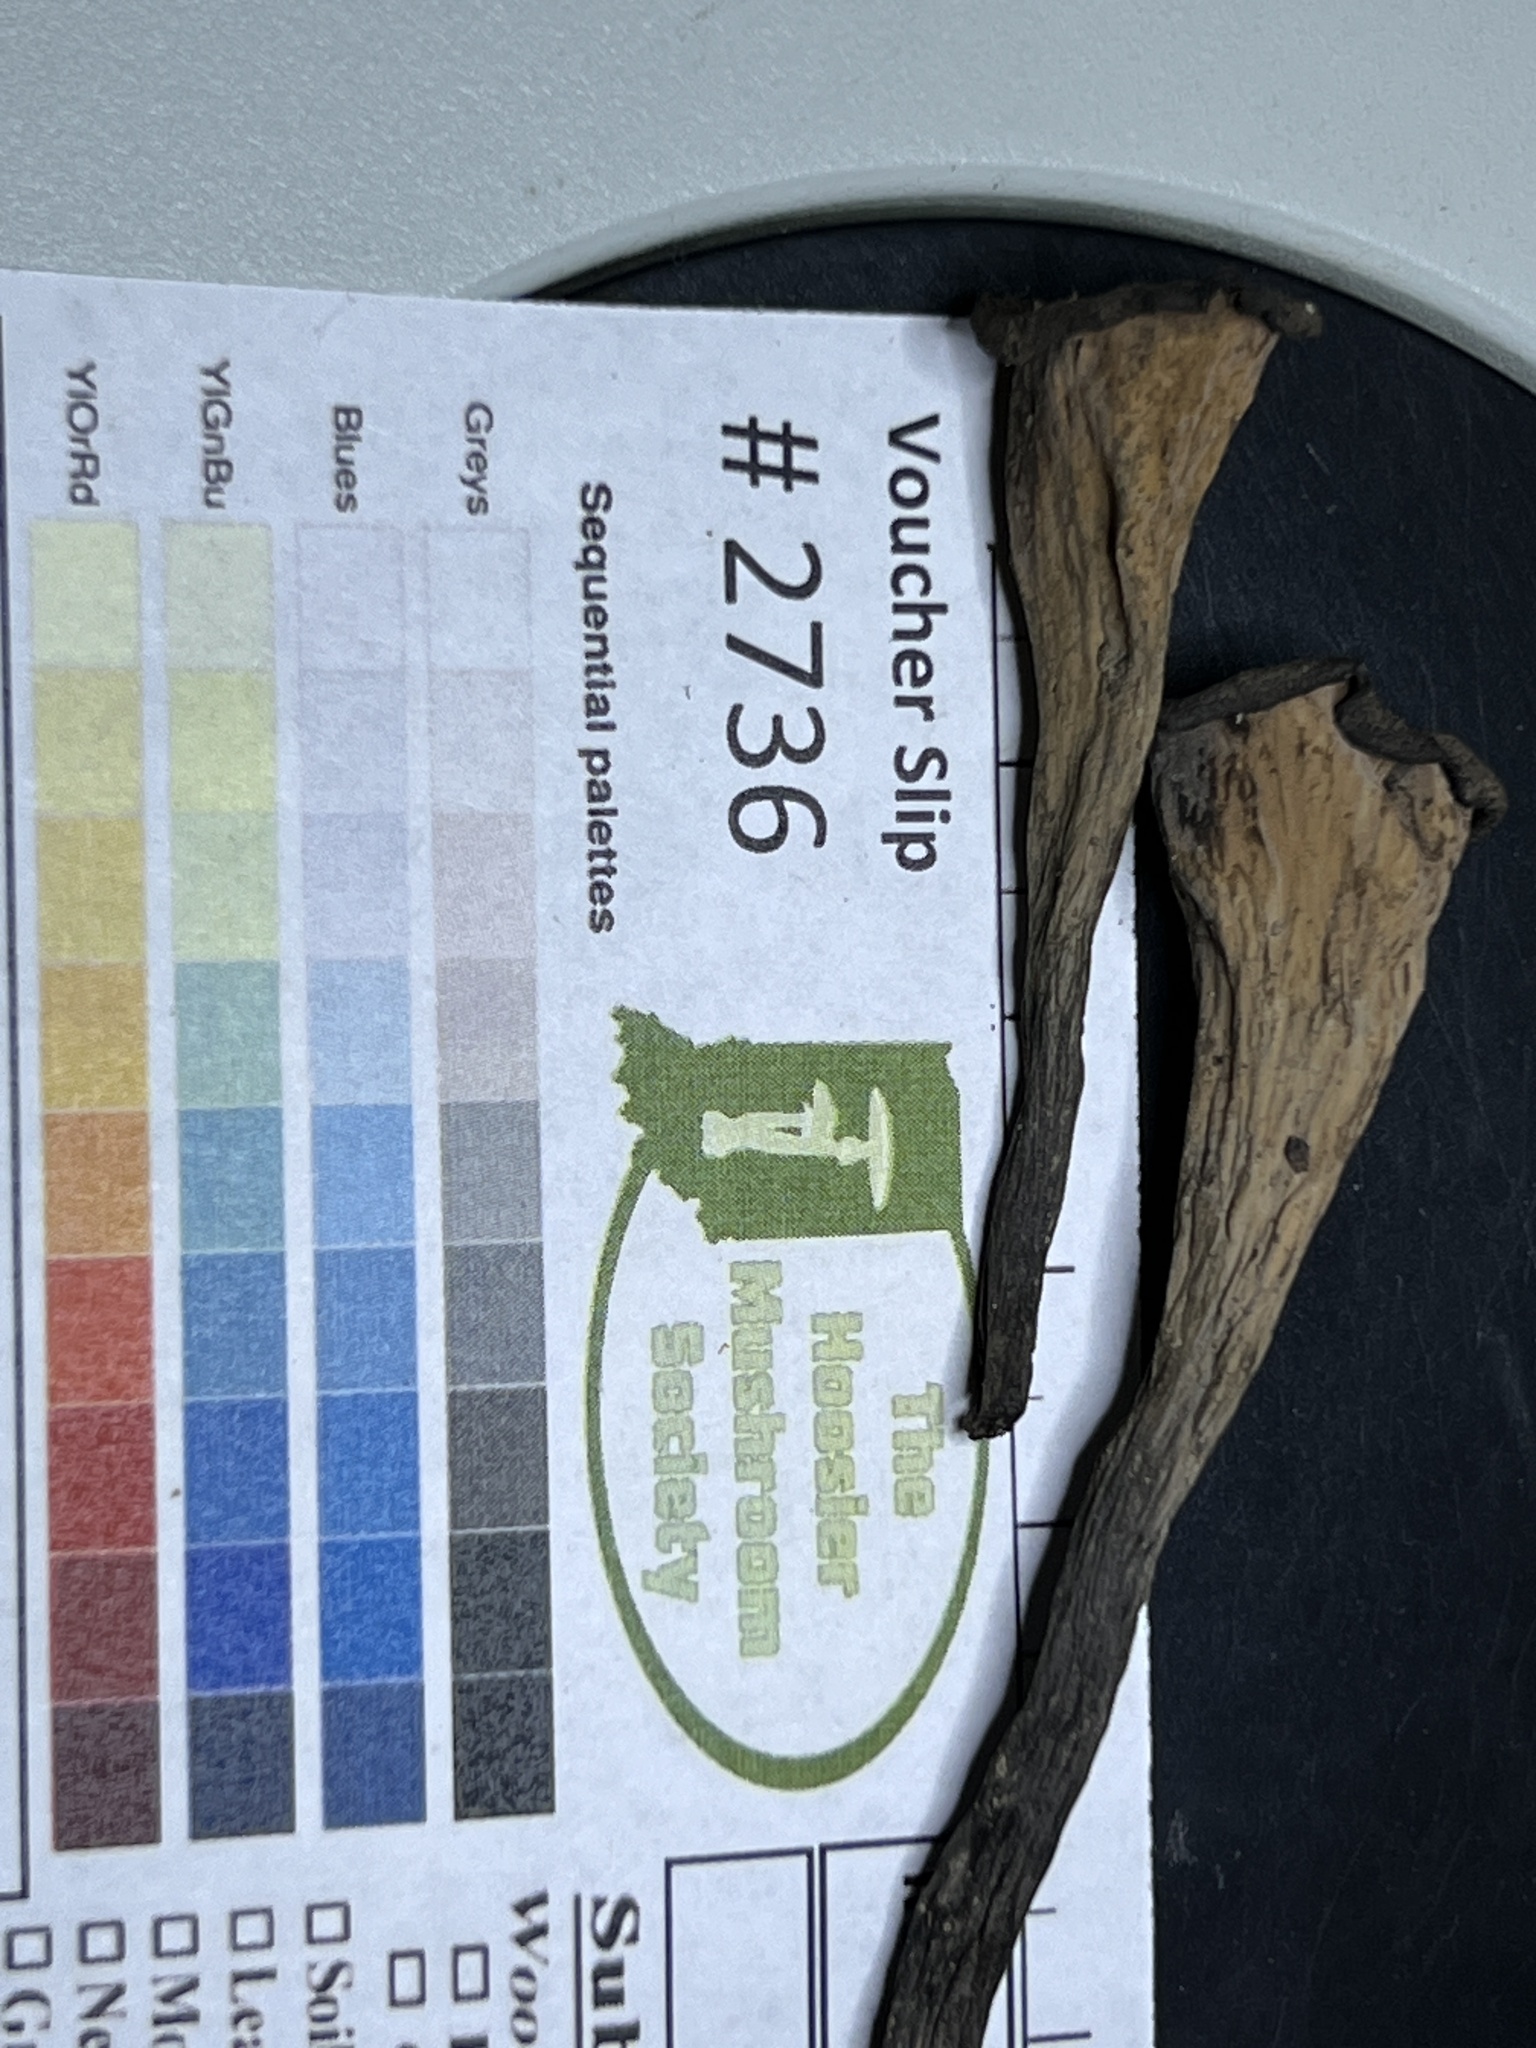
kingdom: Fungi
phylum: Basidiomycota
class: Agaricomycetes
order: Cantharellales
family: Hydnaceae
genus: Craterellus
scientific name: Craterellus cornucopioides
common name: Horn of plenty
